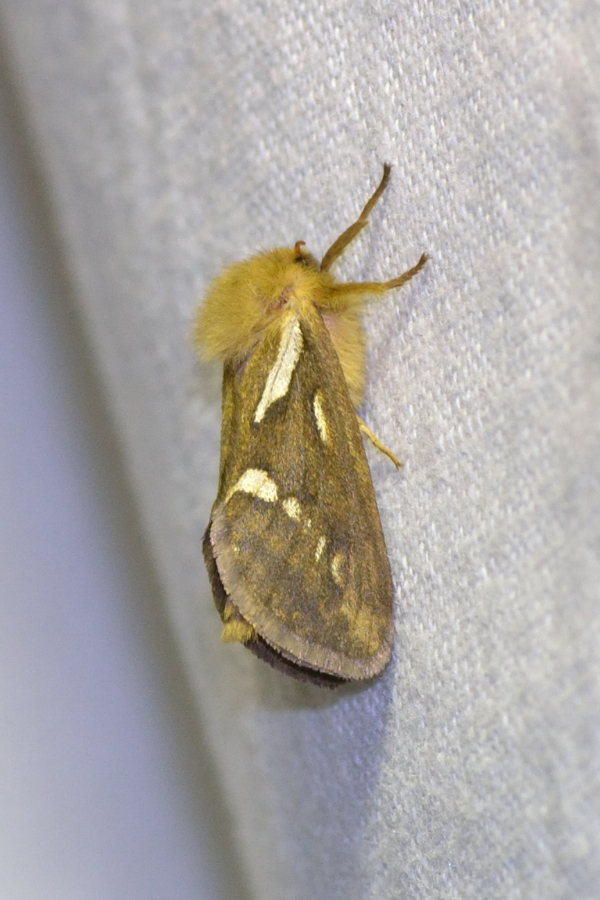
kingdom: Animalia
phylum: Arthropoda
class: Insecta
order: Lepidoptera
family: Hepialidae
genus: Korscheltellus
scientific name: Korscheltellus lupulina
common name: Common swift
